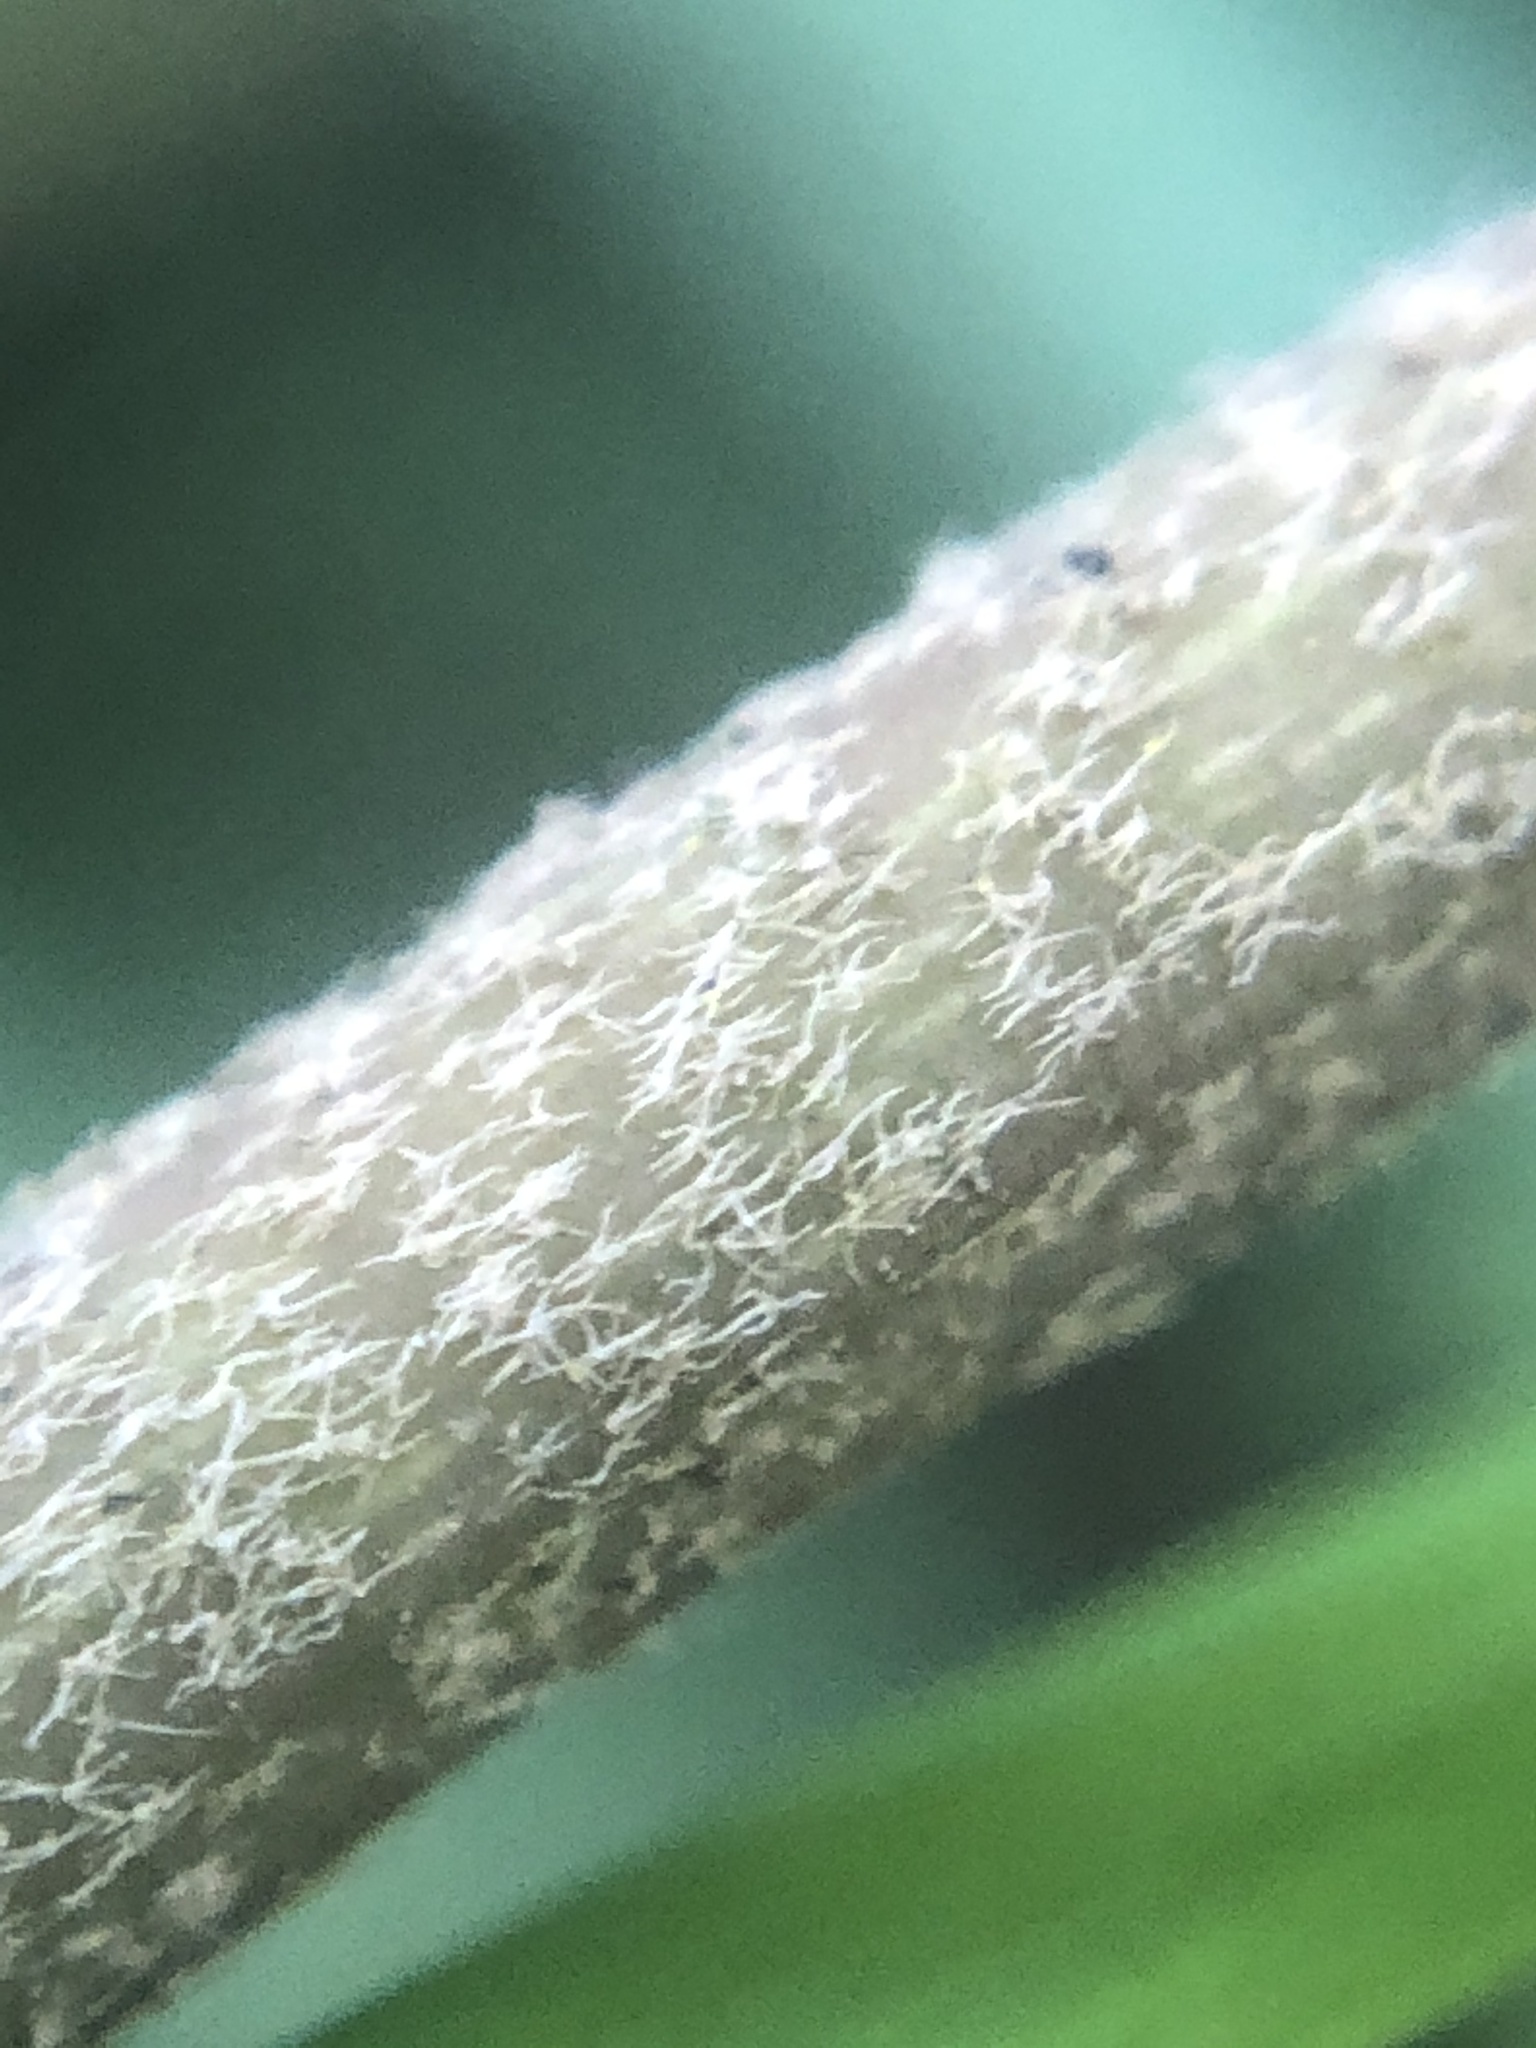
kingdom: Plantae
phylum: Tracheophyta
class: Magnoliopsida
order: Apiales
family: Araliaceae
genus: Hedera
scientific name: Hedera helix
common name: Ivy
